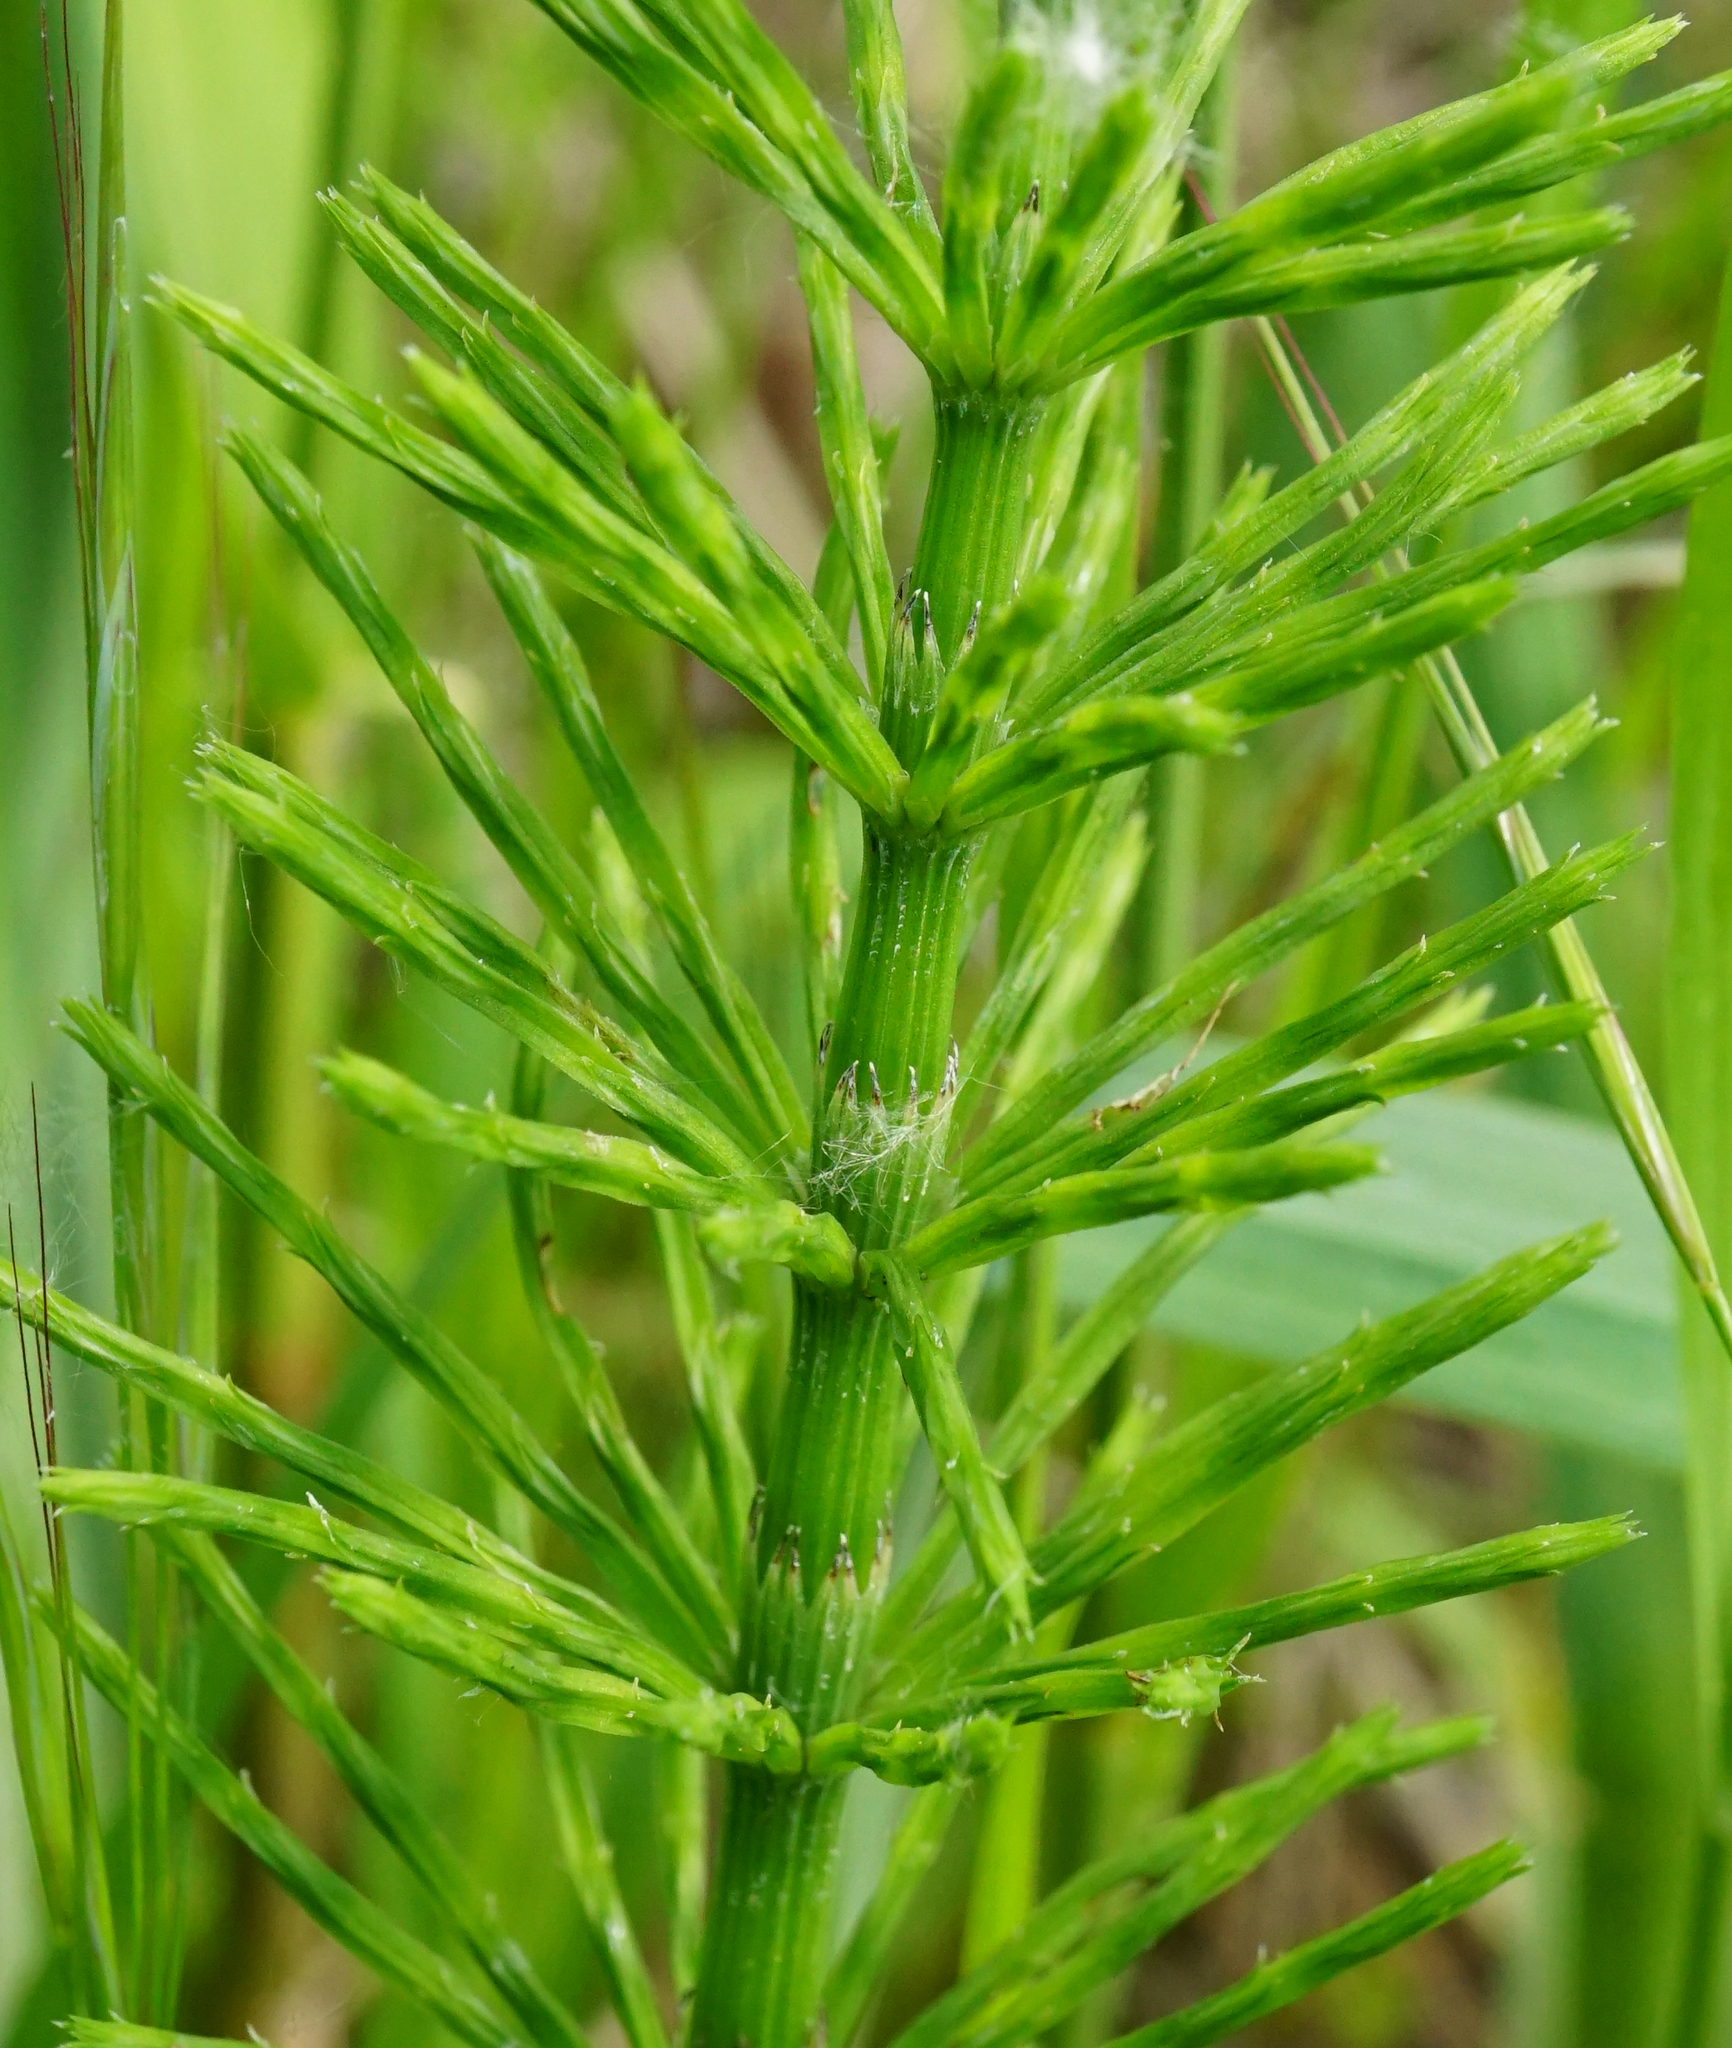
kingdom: Plantae
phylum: Tracheophyta
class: Polypodiopsida
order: Equisetales
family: Equisetaceae
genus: Equisetum
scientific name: Equisetum arvense
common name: Field horsetail
